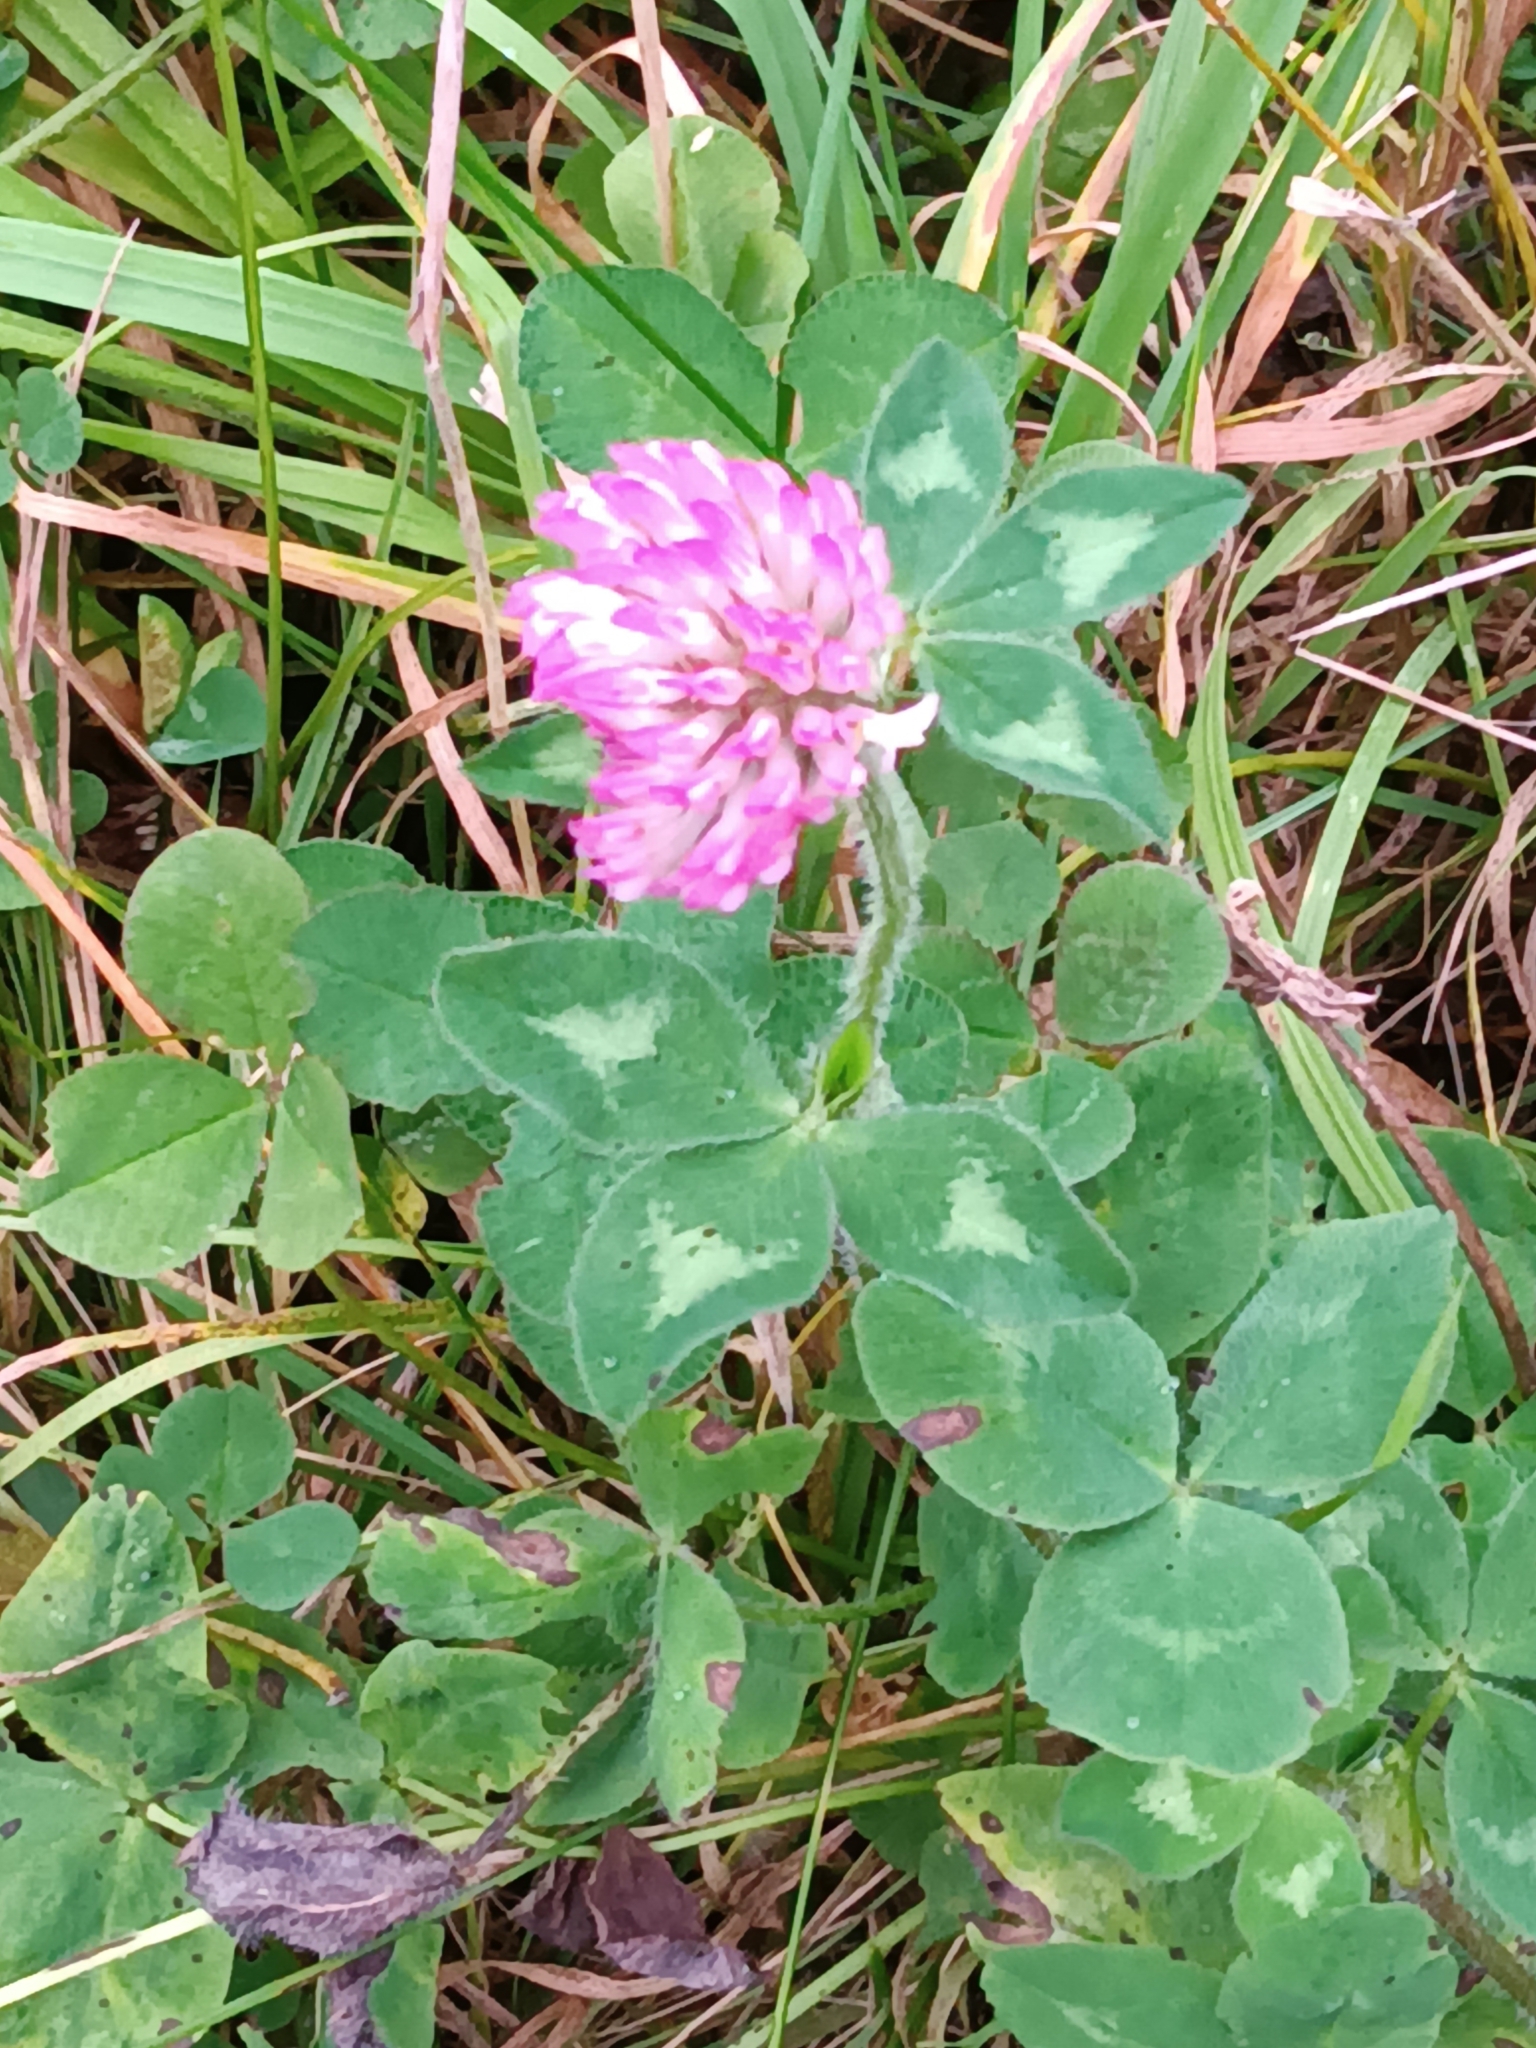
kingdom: Plantae
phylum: Tracheophyta
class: Magnoliopsida
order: Fabales
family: Fabaceae
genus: Trifolium
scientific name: Trifolium pratense
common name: Red clover
